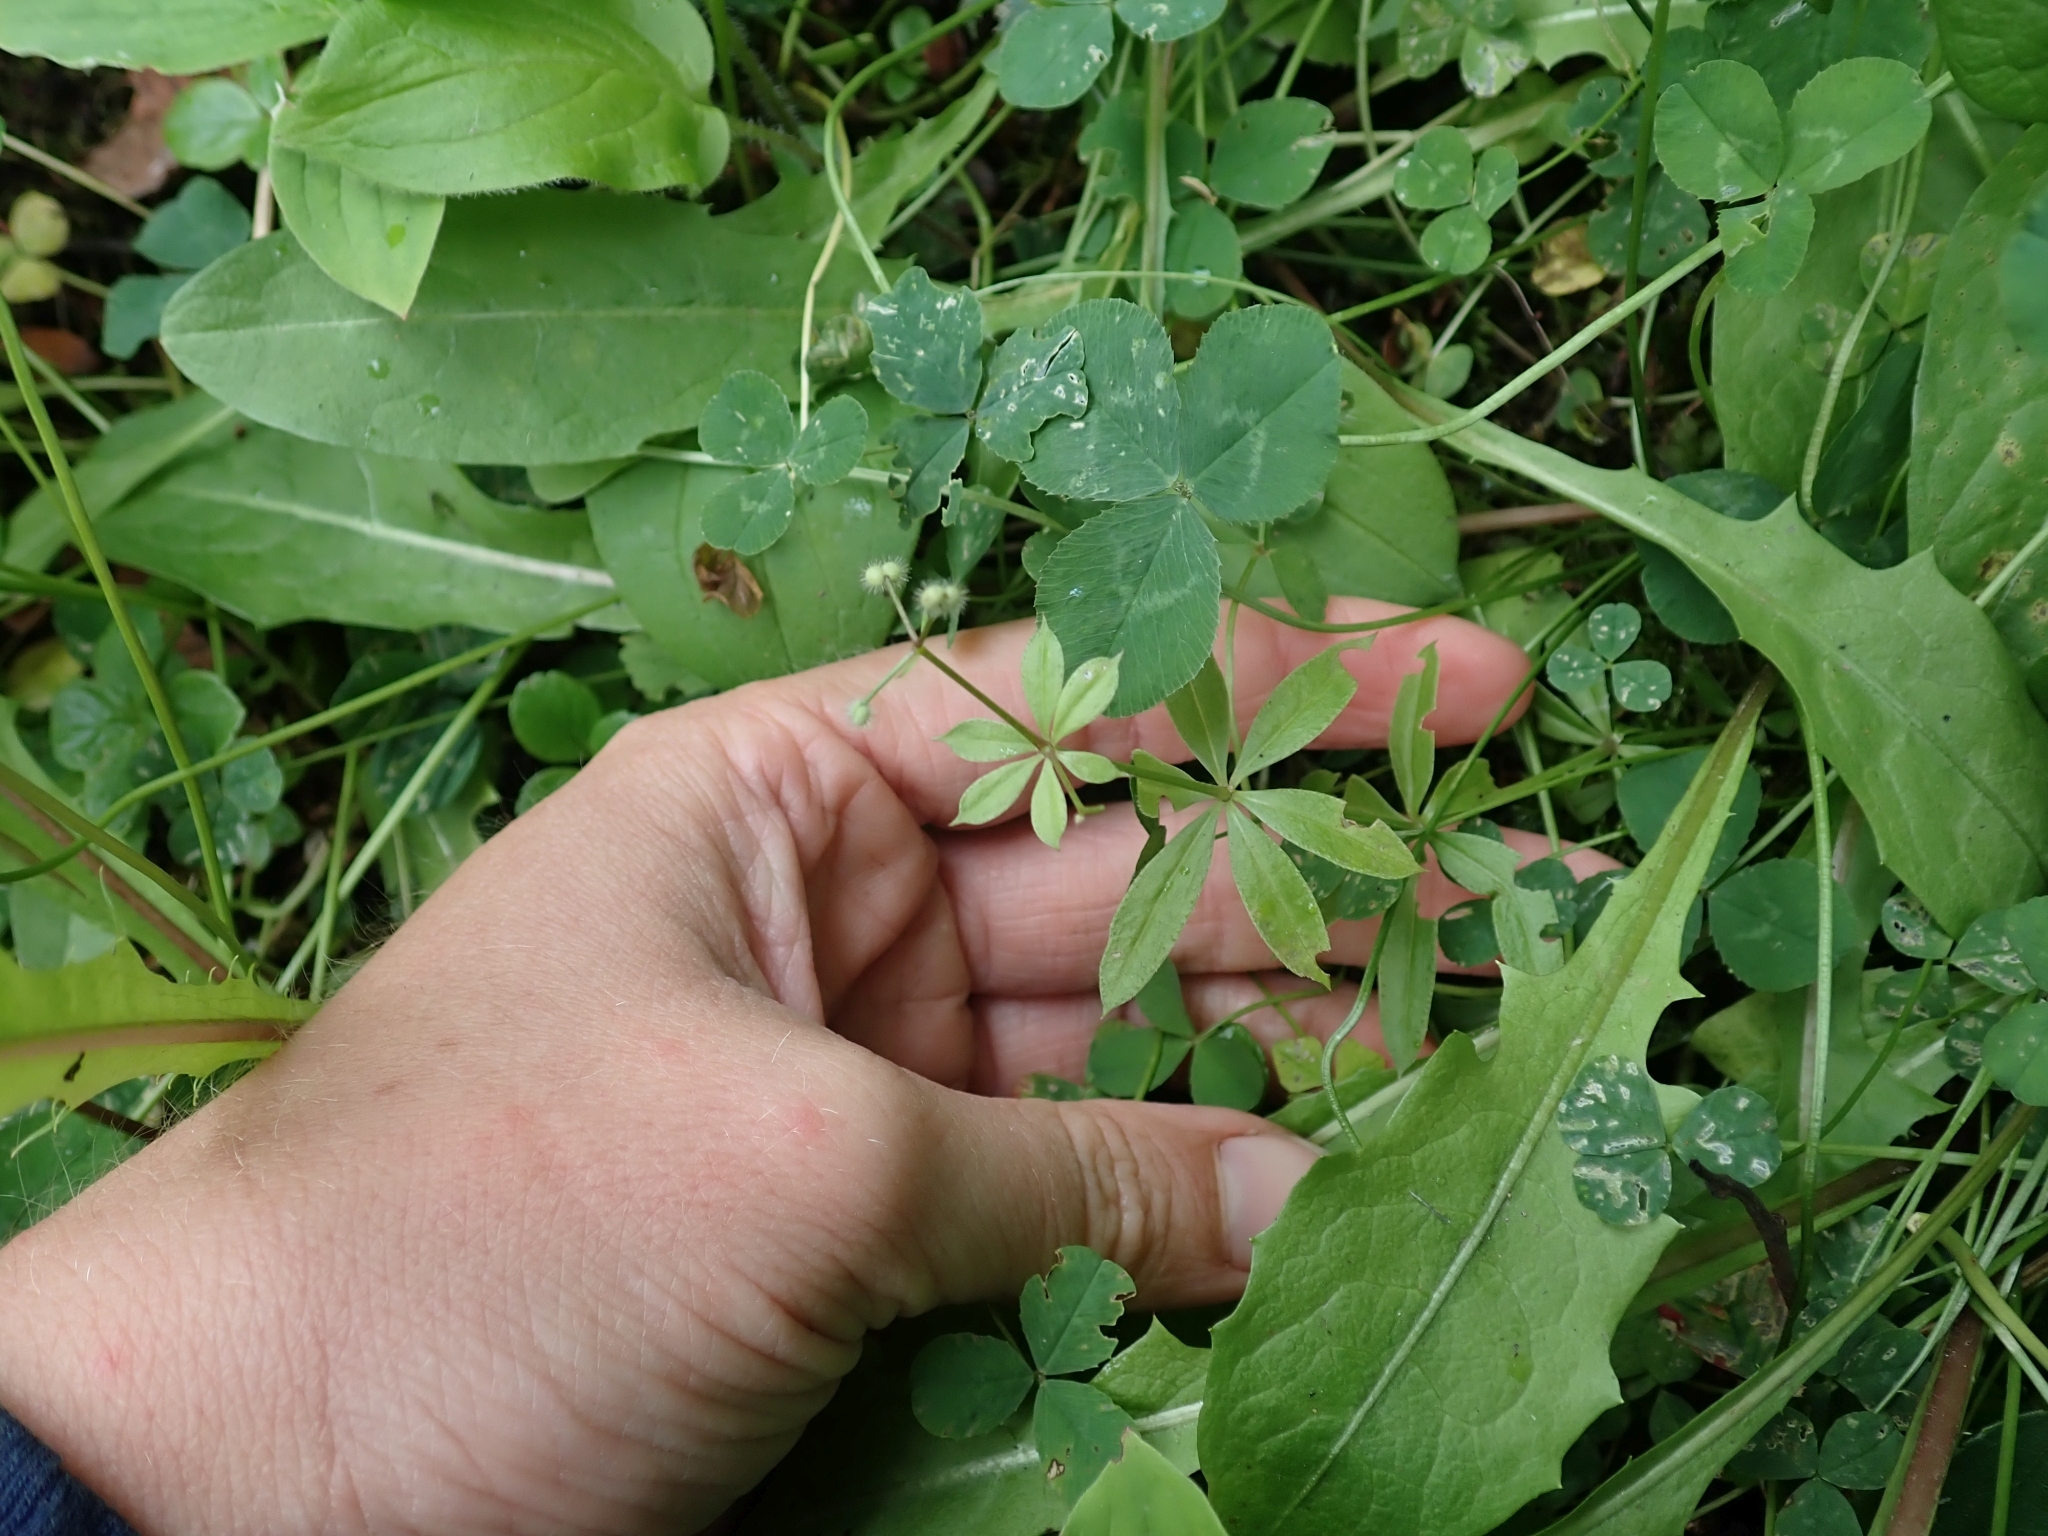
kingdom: Plantae
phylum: Tracheophyta
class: Magnoliopsida
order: Gentianales
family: Rubiaceae
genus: Galium
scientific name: Galium triflorum
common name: Fragrant bedstraw
